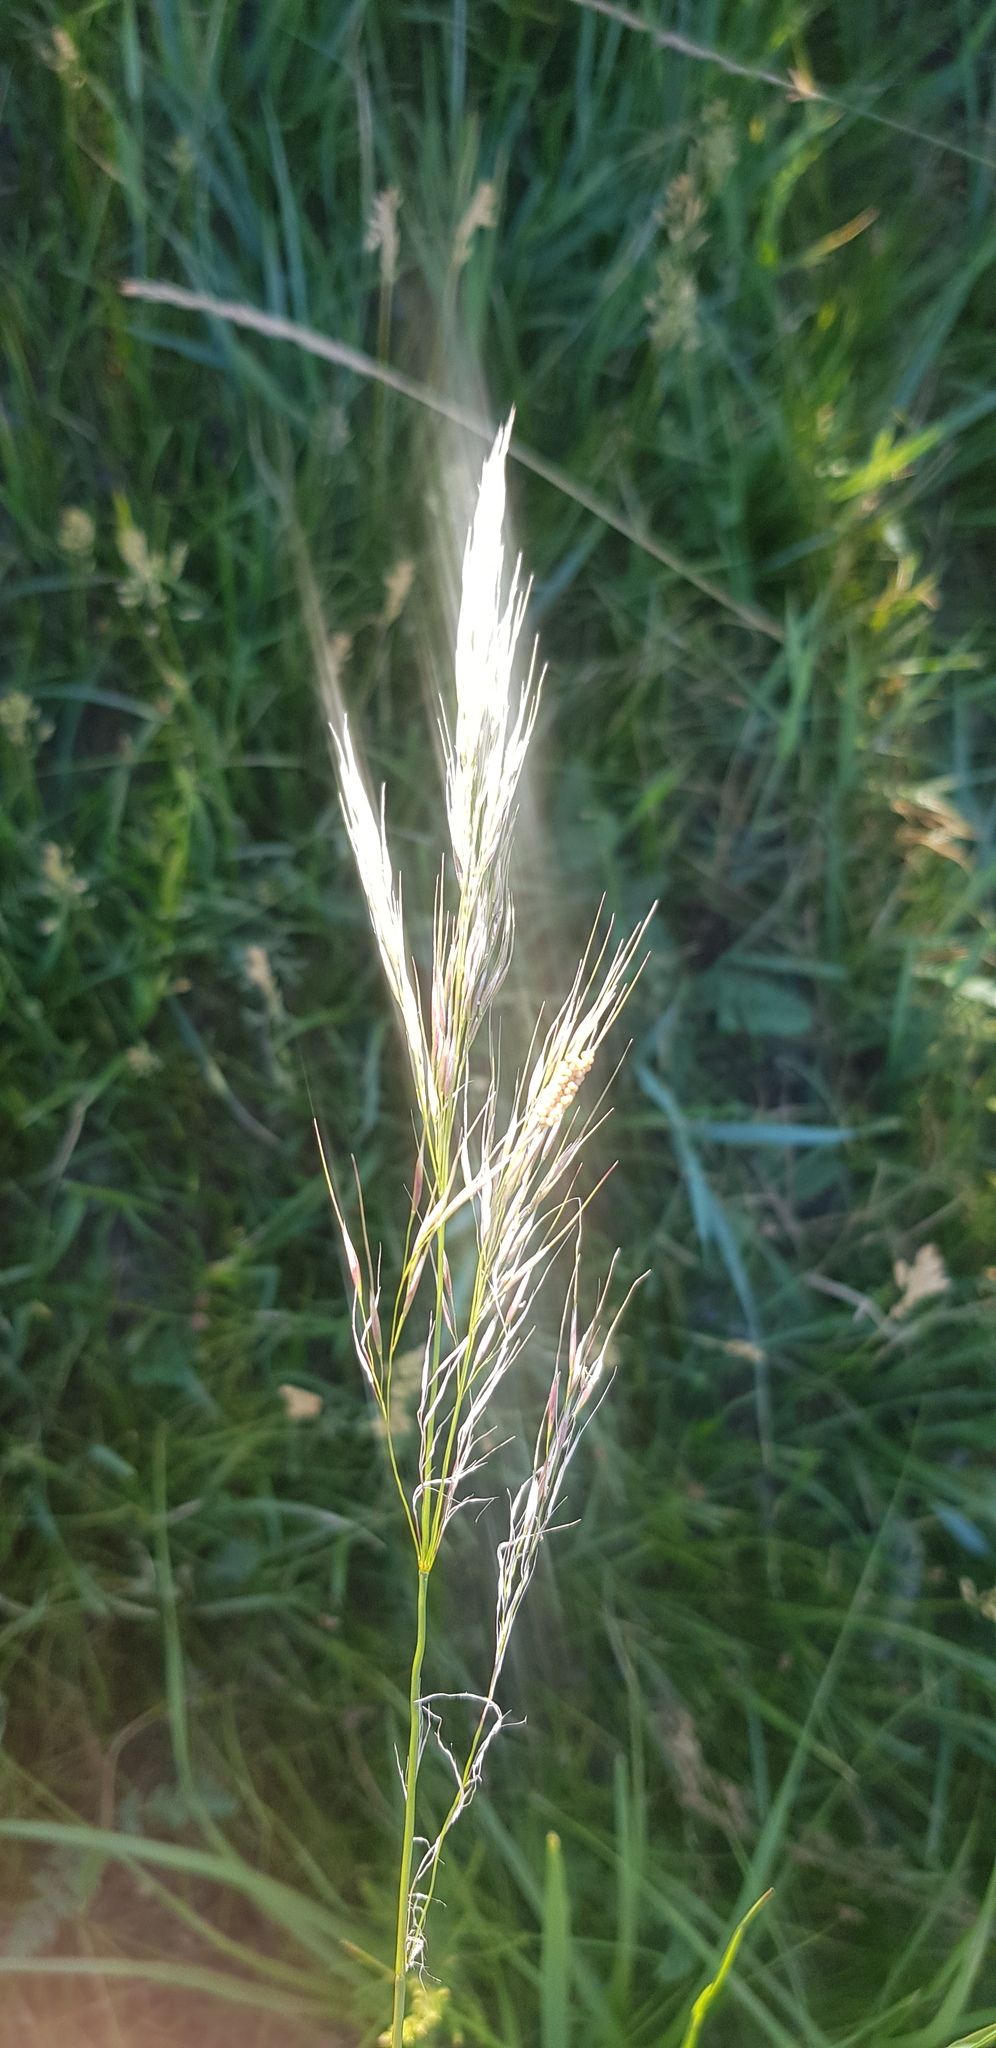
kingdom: Plantae
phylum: Tracheophyta
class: Liliopsida
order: Poales
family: Poaceae
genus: Neotrinia
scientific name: Neotrinia splendens
